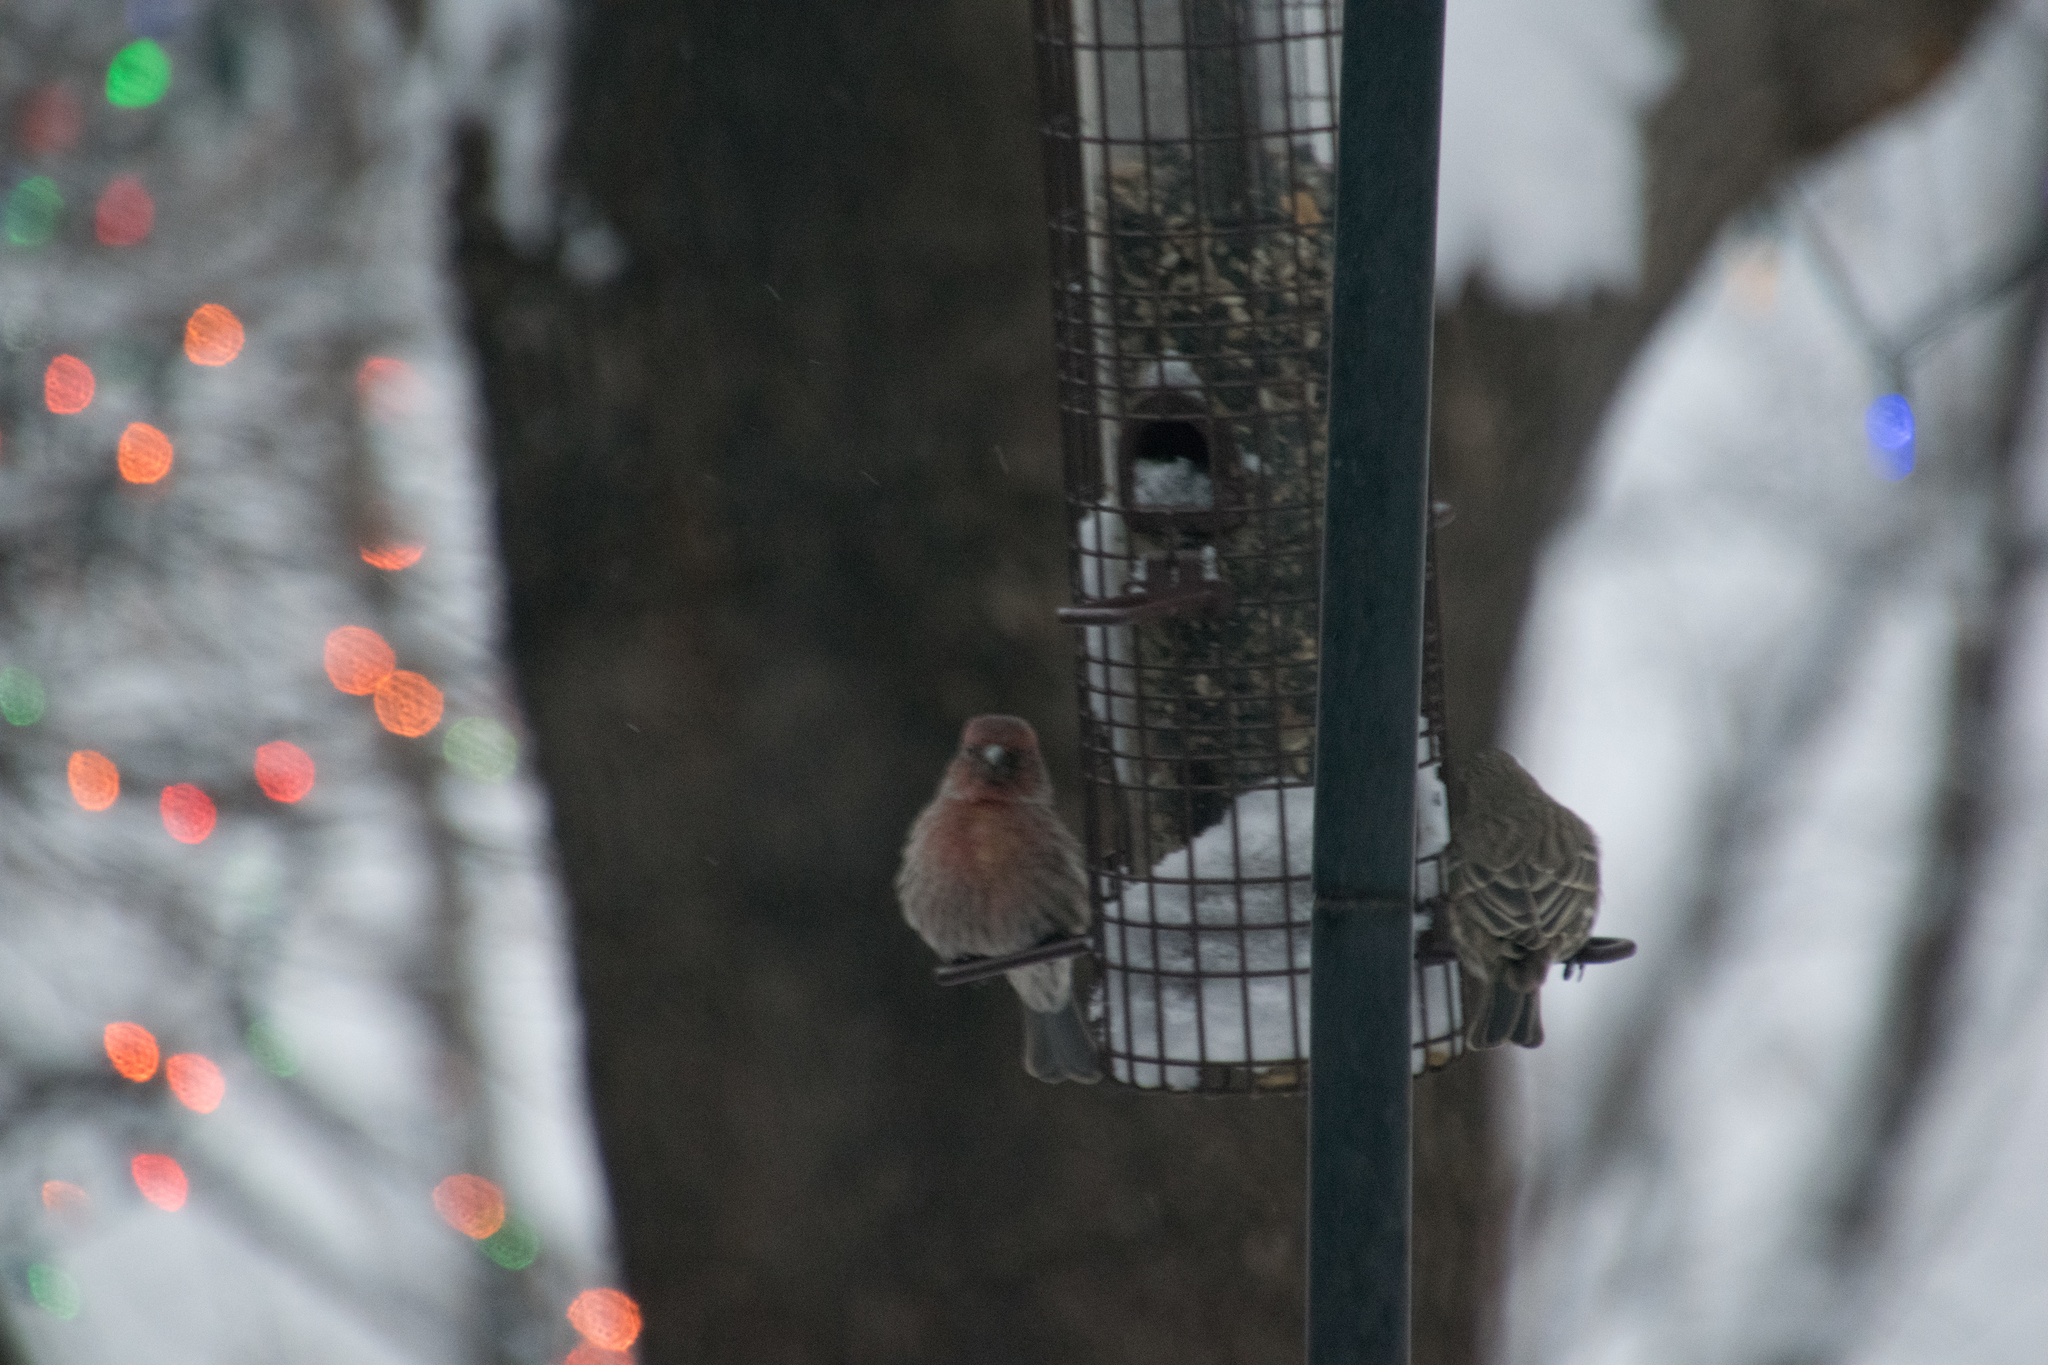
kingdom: Animalia
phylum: Chordata
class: Aves
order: Passeriformes
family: Fringillidae
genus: Haemorhous
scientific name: Haemorhous mexicanus
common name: House finch
